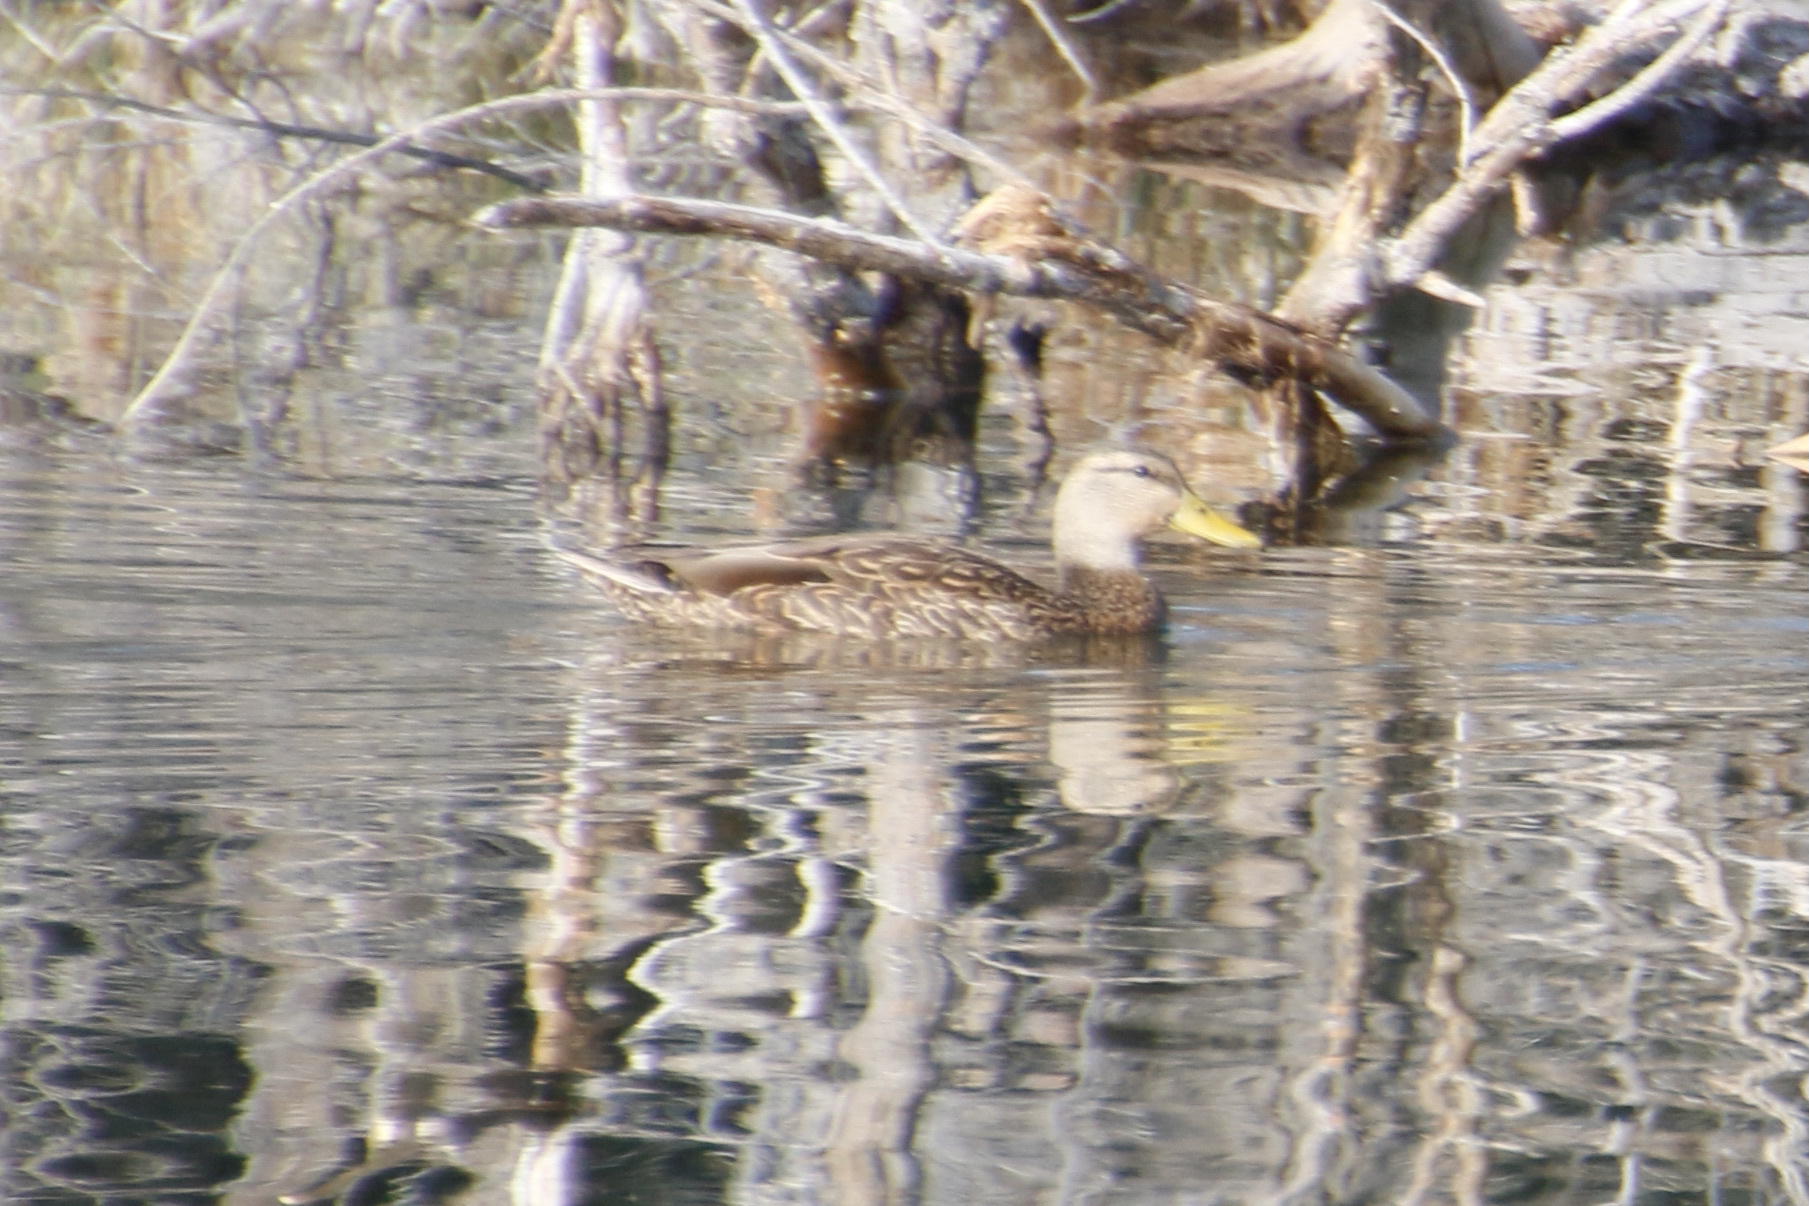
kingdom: Animalia
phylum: Chordata
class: Aves
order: Anseriformes
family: Anatidae
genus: Anas
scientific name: Anas diazi
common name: Mexican duck
